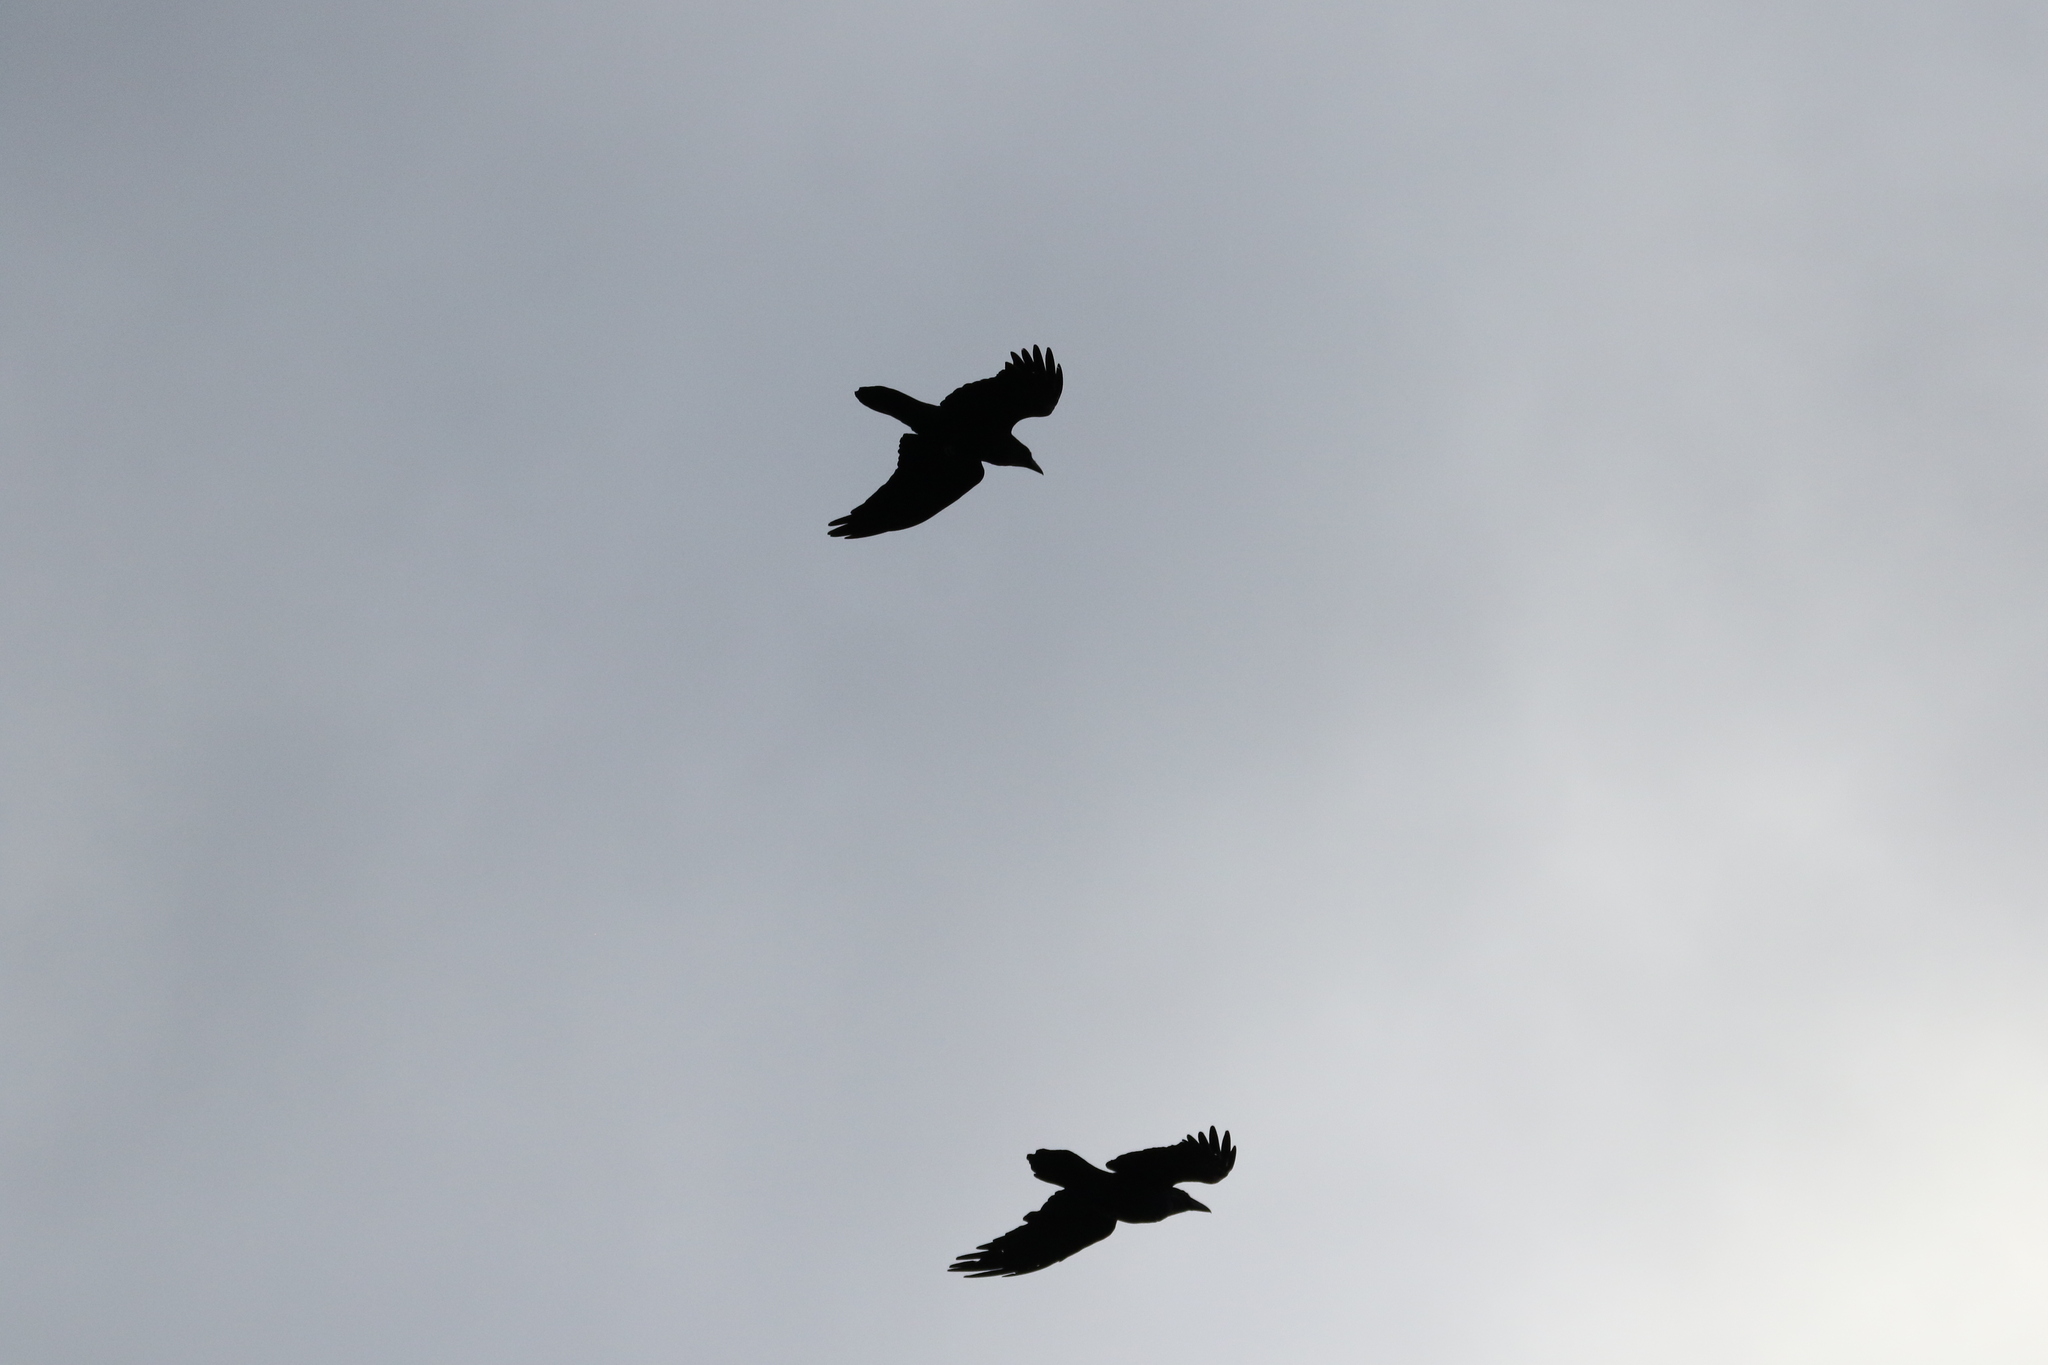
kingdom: Animalia
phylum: Chordata
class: Aves
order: Passeriformes
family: Corvidae
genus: Corvus
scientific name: Corvus corax
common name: Common raven
